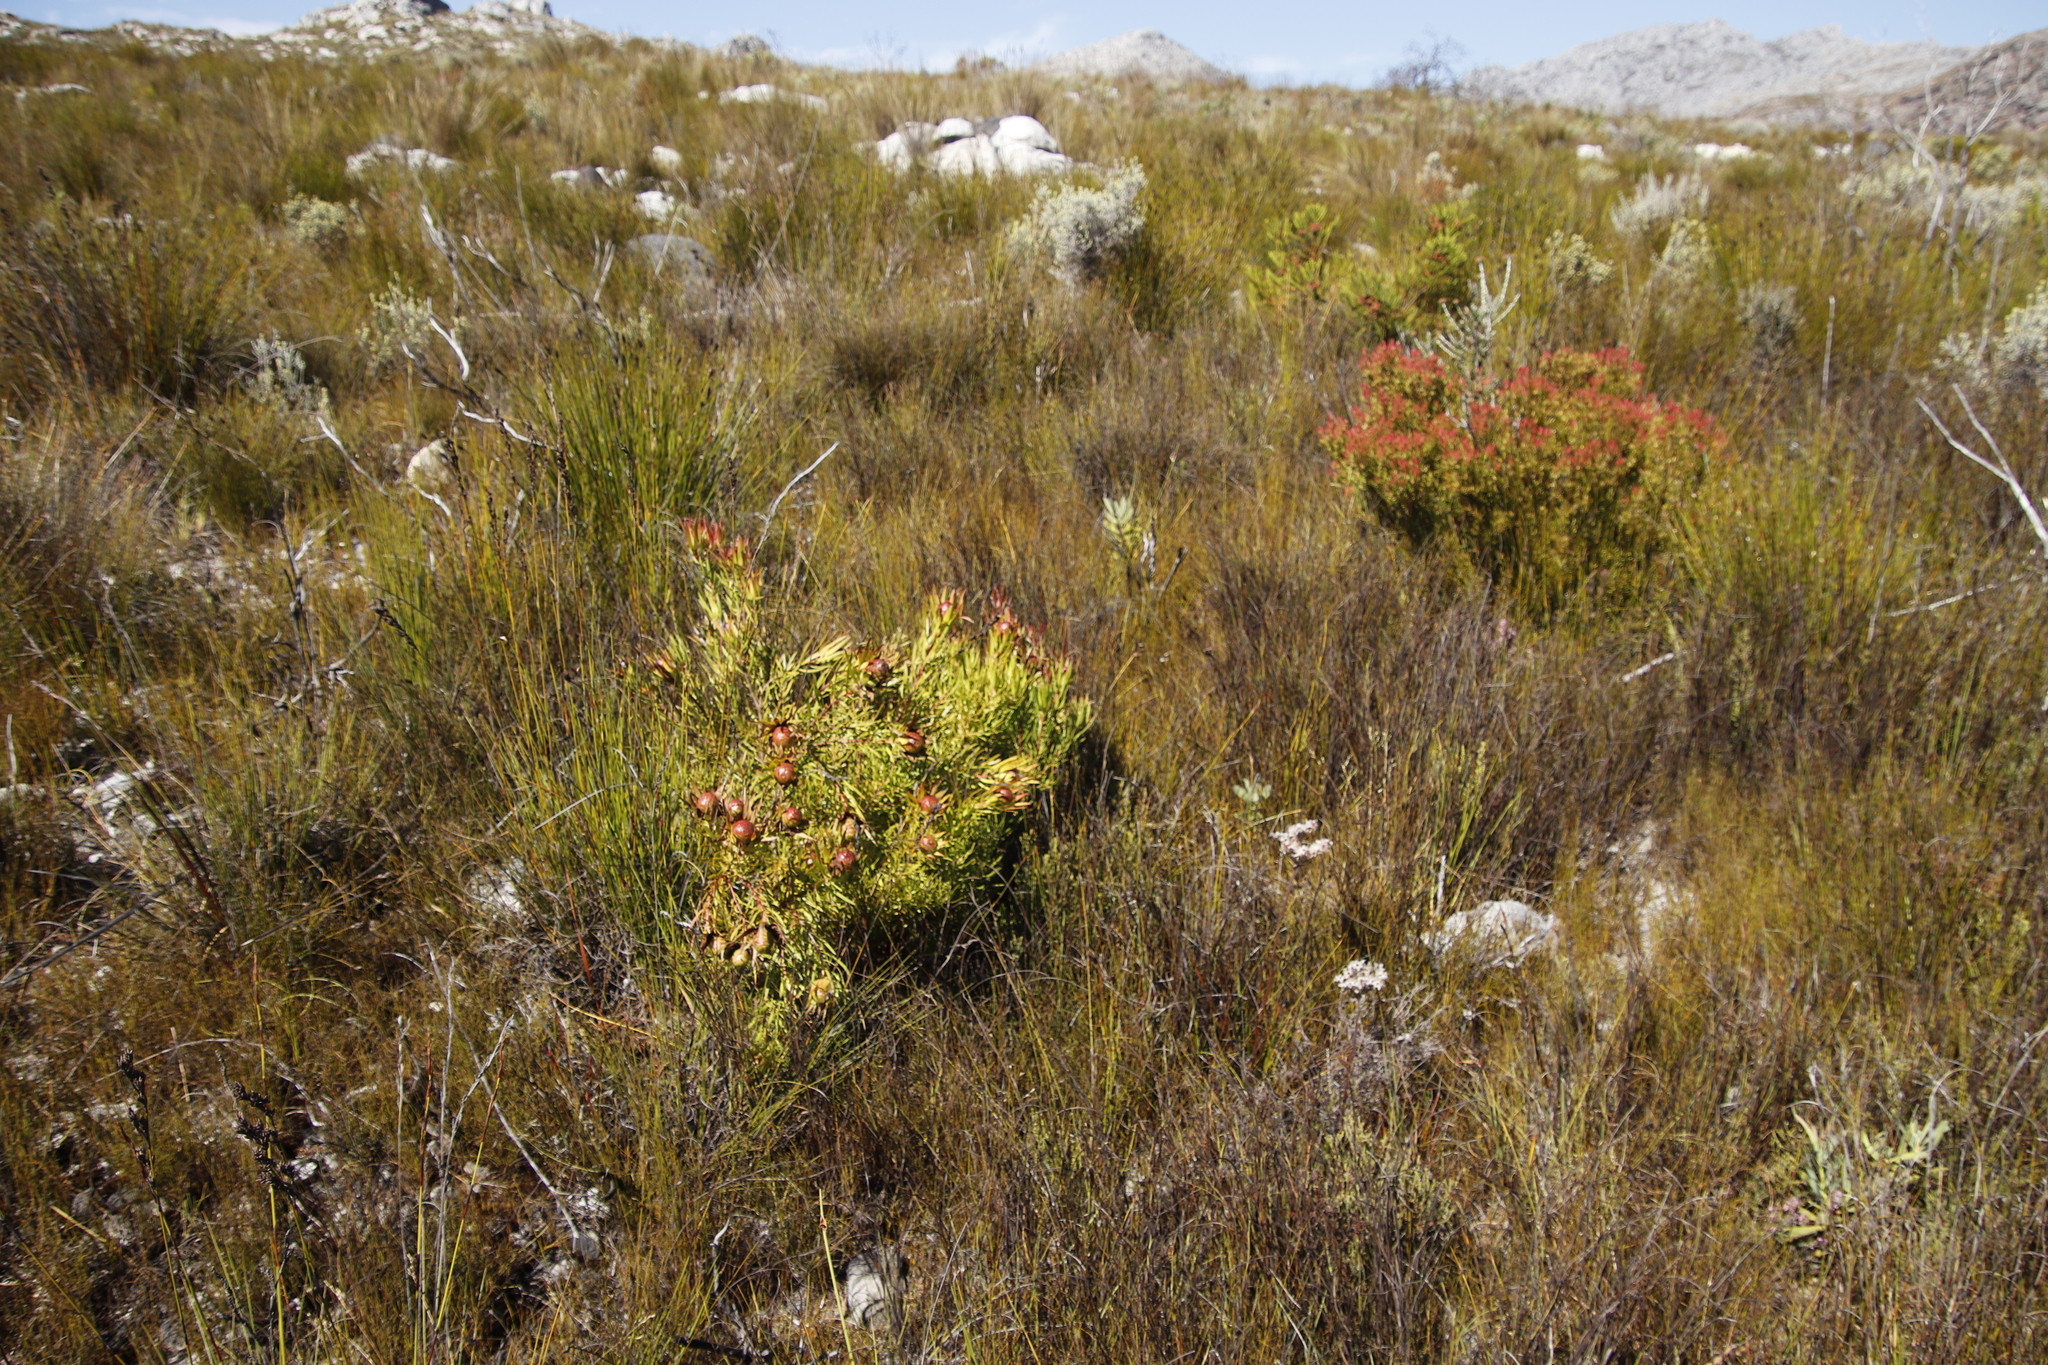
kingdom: Plantae
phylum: Tracheophyta
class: Magnoliopsida
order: Proteales
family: Proteaceae
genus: Leucadendron
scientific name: Leucadendron spissifolium
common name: Spear-leaf conebush
